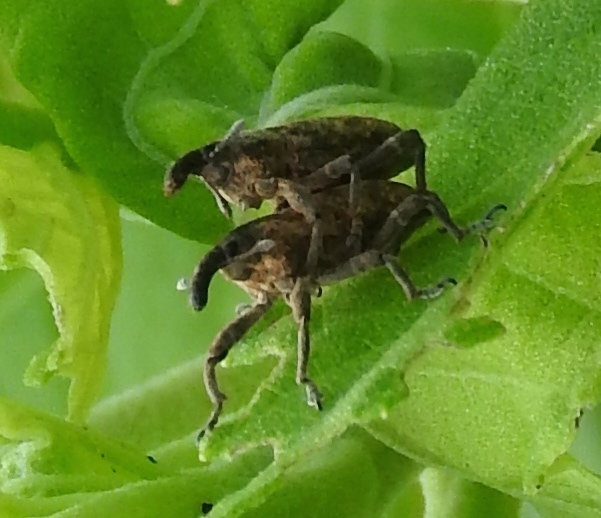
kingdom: Animalia
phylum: Arthropoda
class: Insecta
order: Coleoptera
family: Curculionidae
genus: Lixus
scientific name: Lixus
